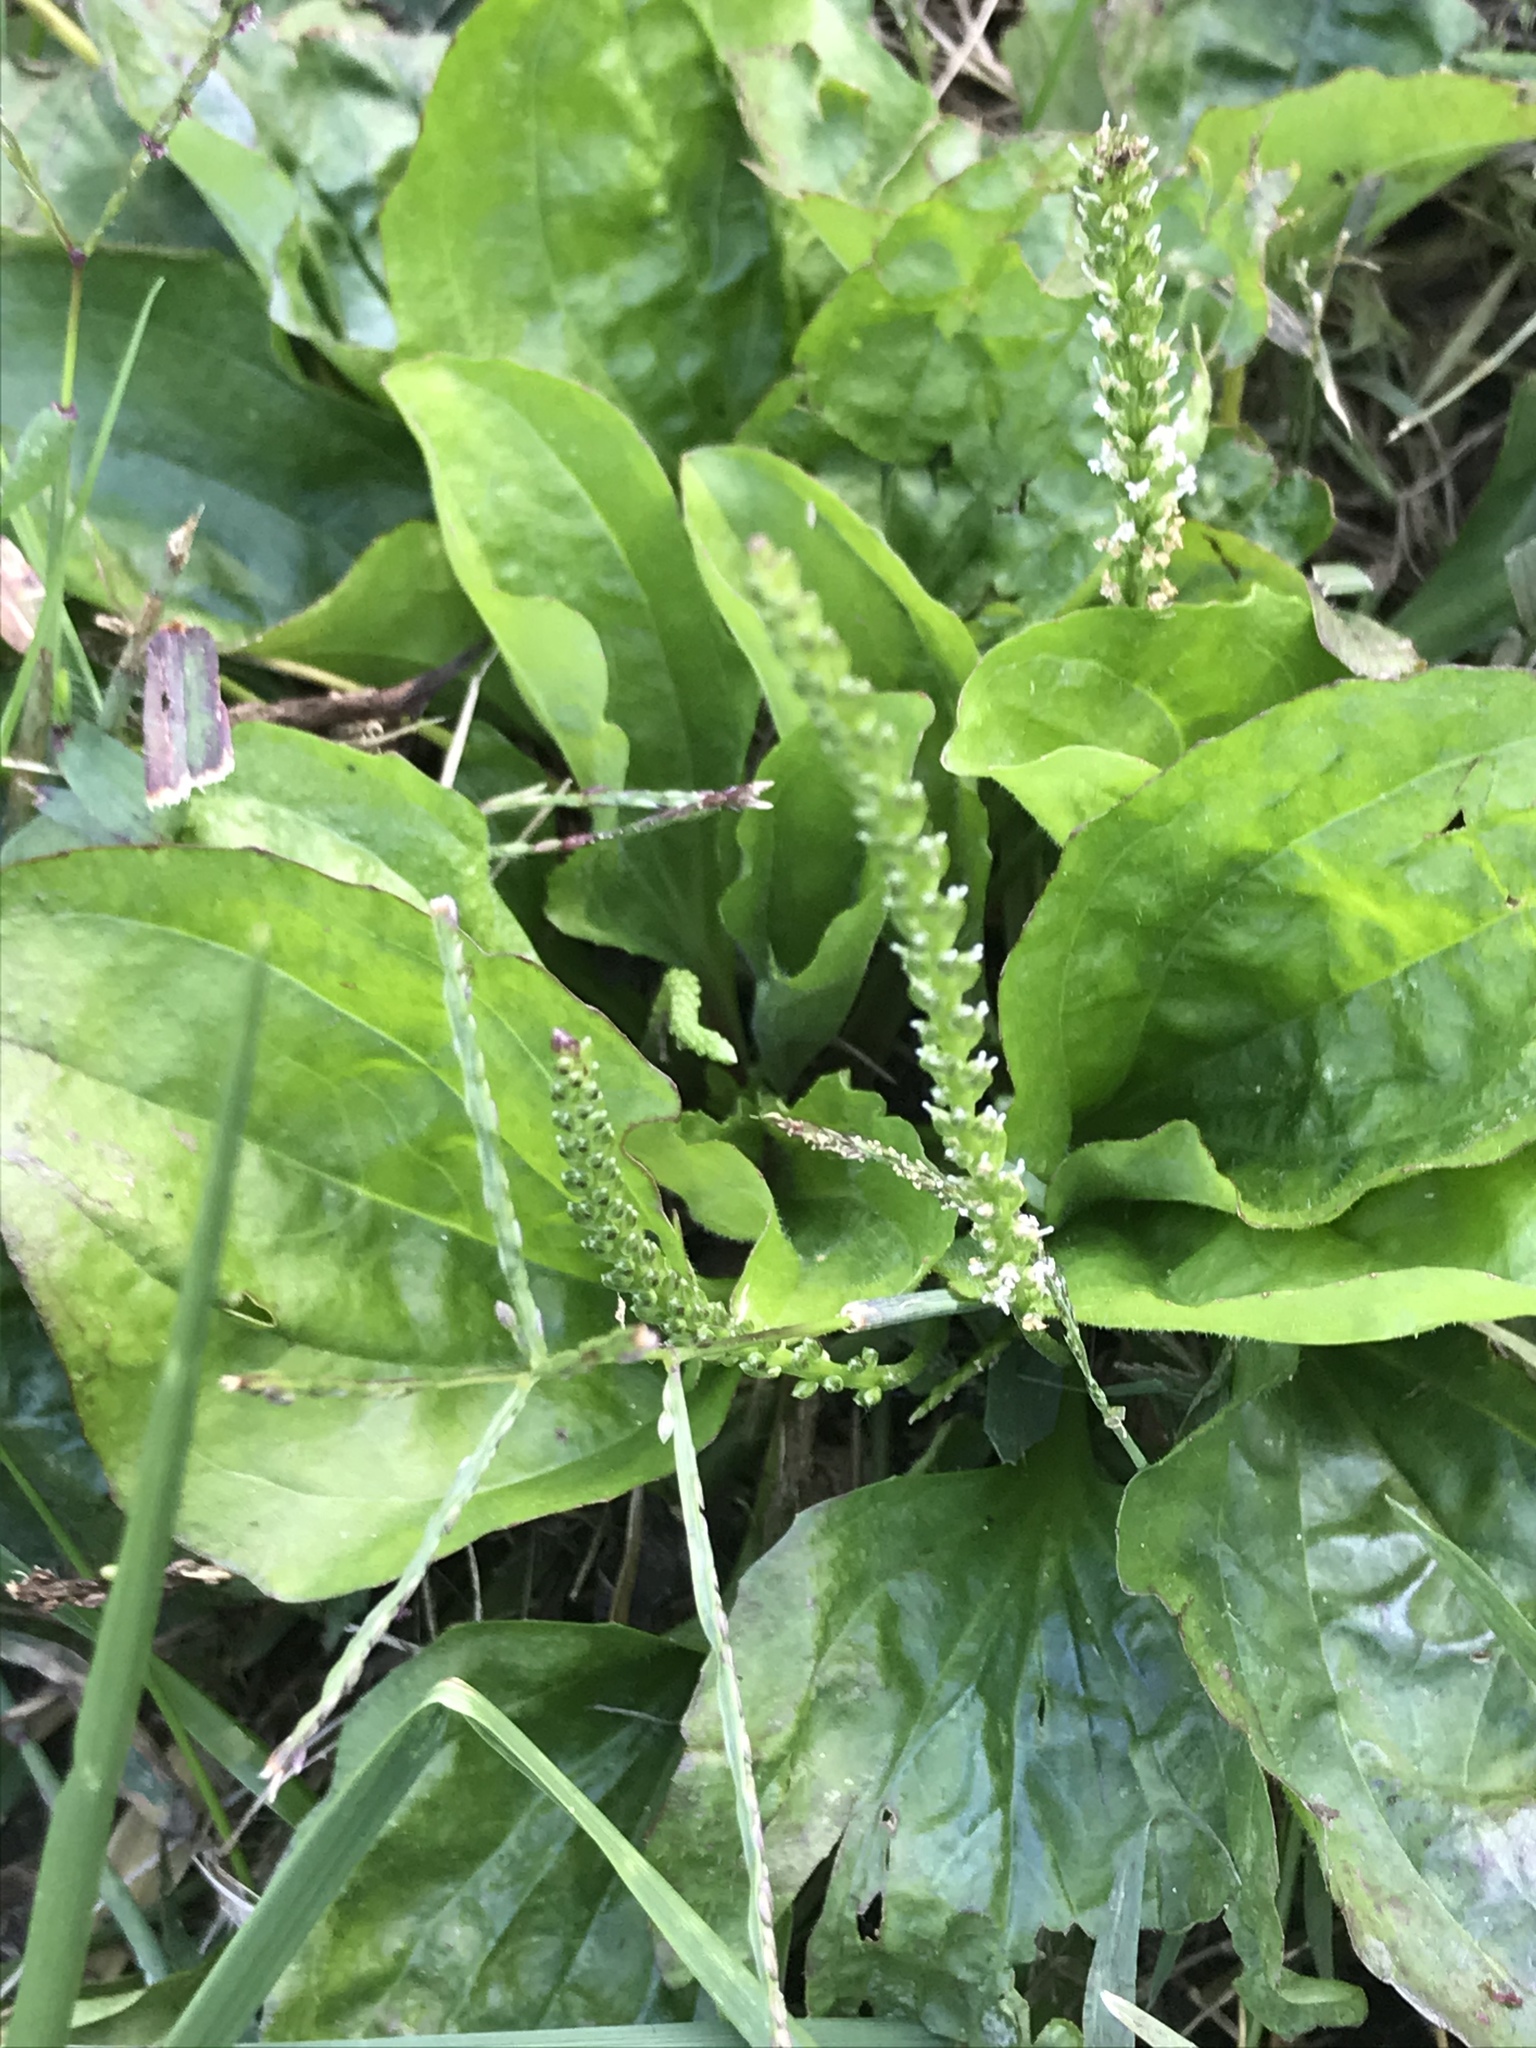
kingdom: Plantae
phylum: Tracheophyta
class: Magnoliopsida
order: Lamiales
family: Plantaginaceae
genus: Plantago
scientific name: Plantago rugelii
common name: American plantain
